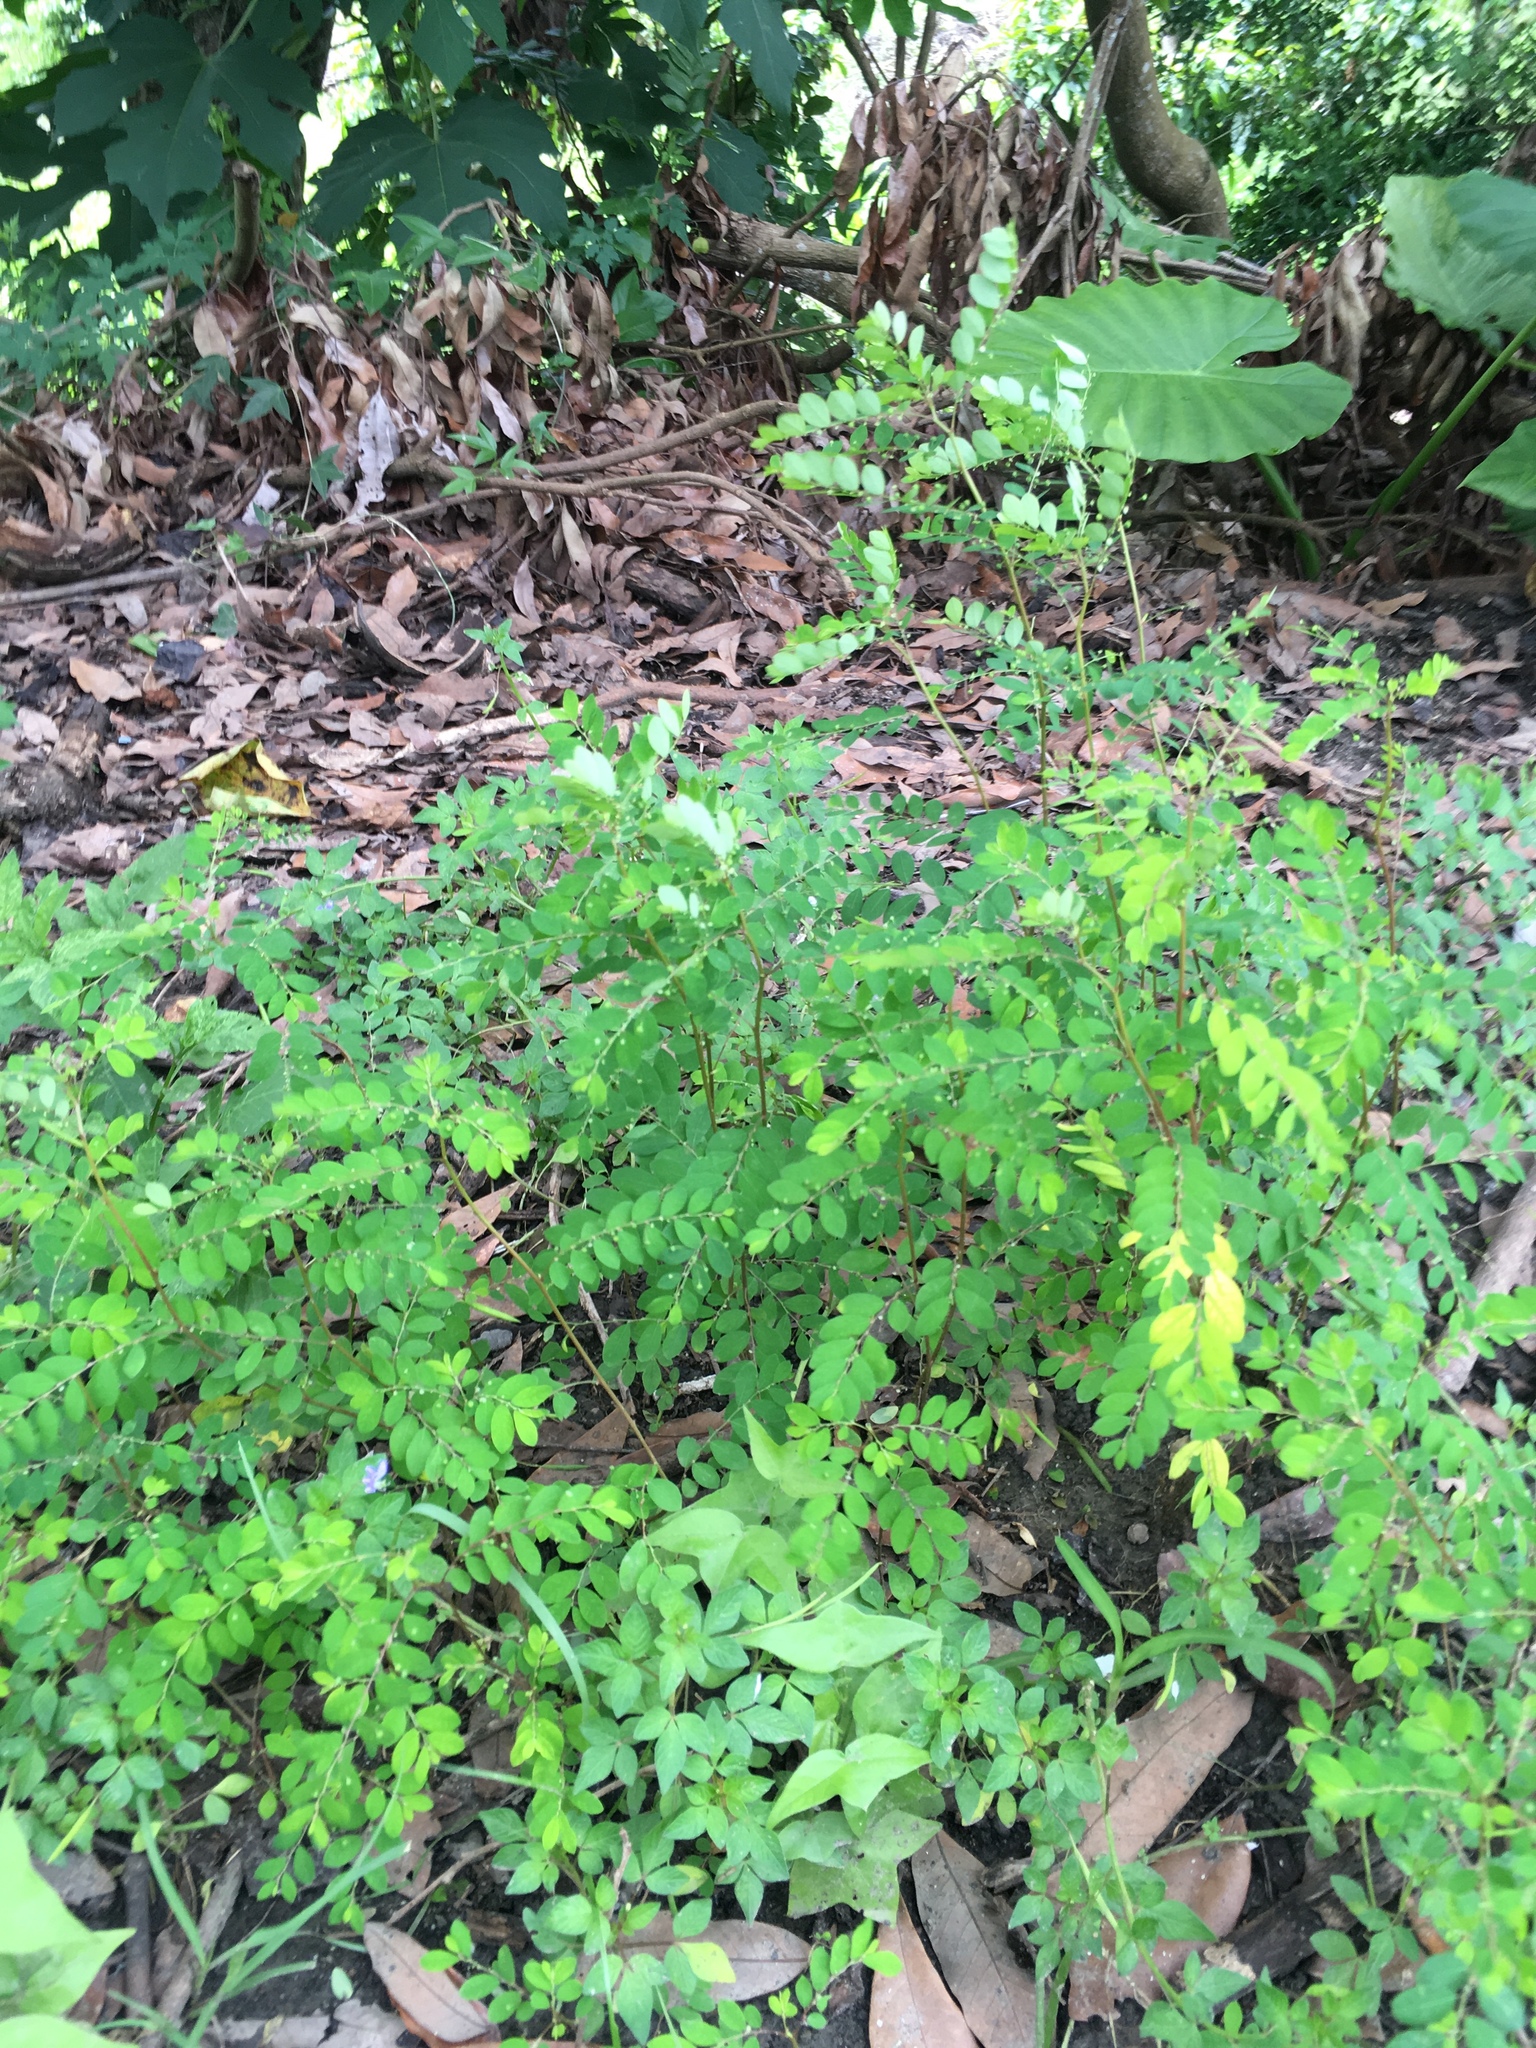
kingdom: Plantae
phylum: Tracheophyta
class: Magnoliopsida
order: Malpighiales
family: Phyllanthaceae
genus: Phyllanthus
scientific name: Phyllanthus tenellus
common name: Mascarene island leaf-flower
